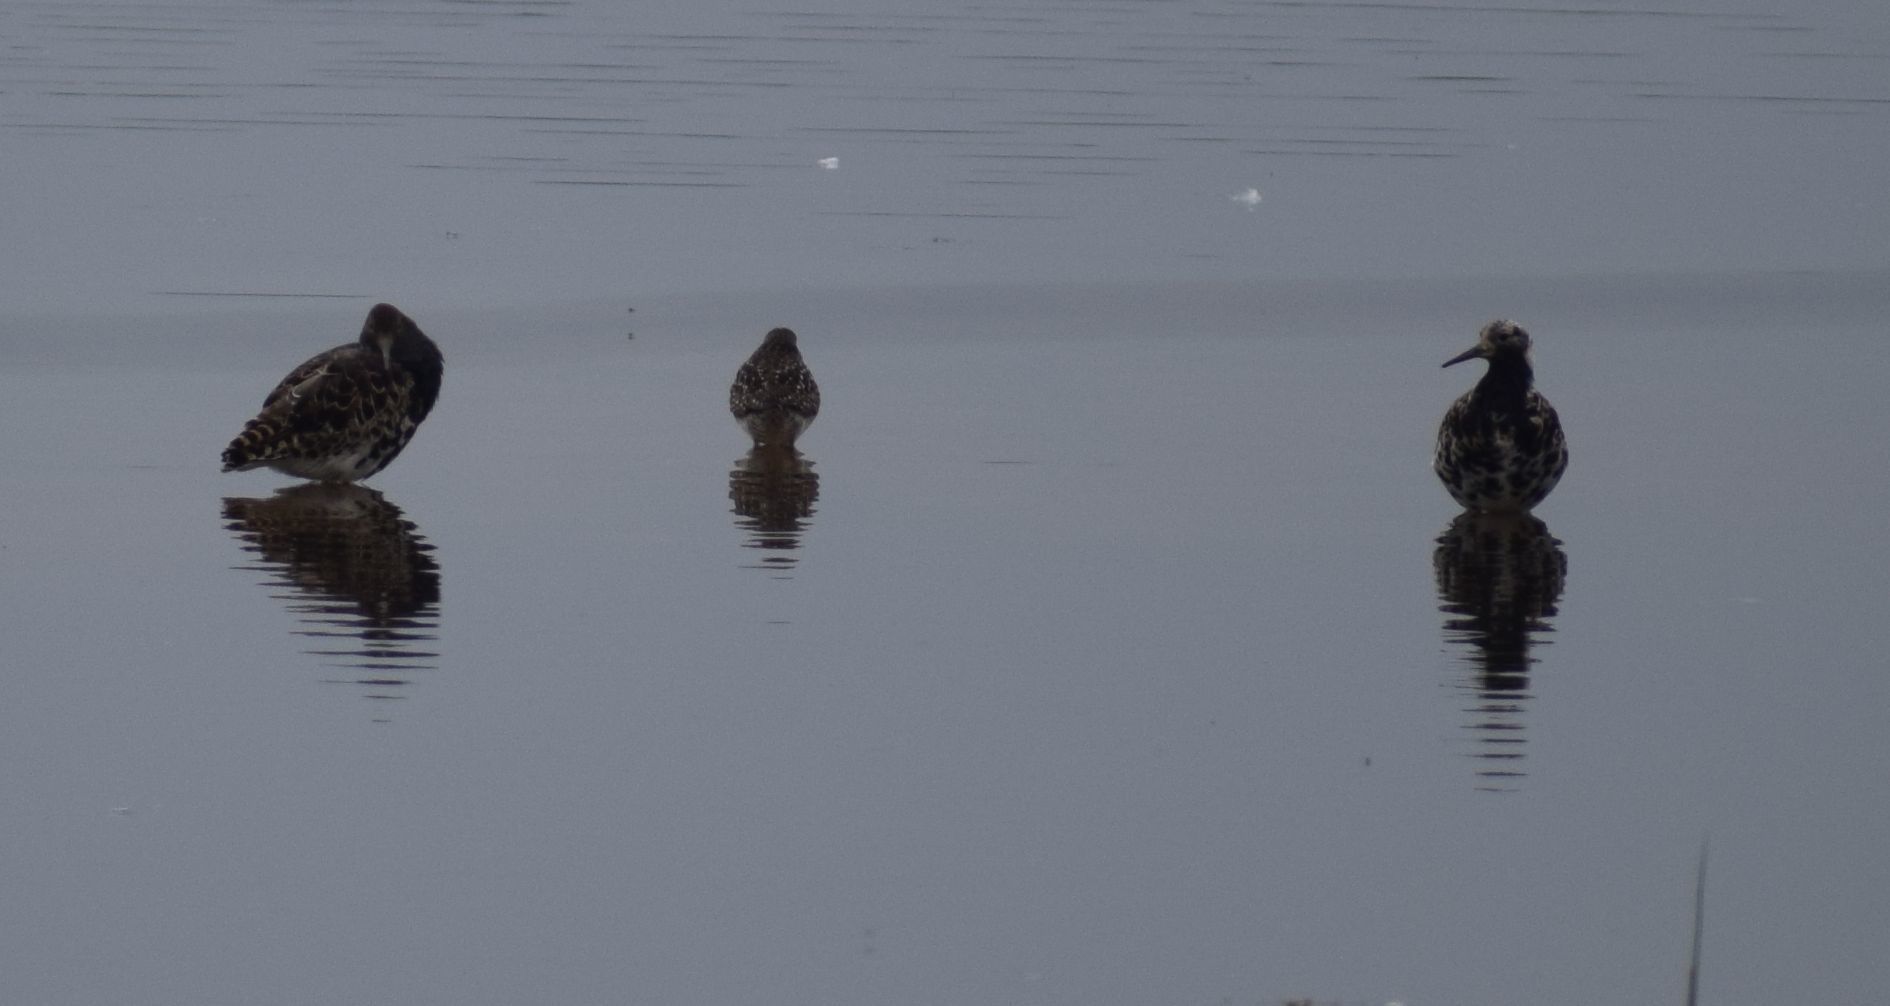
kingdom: Animalia
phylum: Chordata
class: Aves
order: Charadriiformes
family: Scolopacidae
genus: Calidris
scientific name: Calidris pugnax
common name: Ruff
